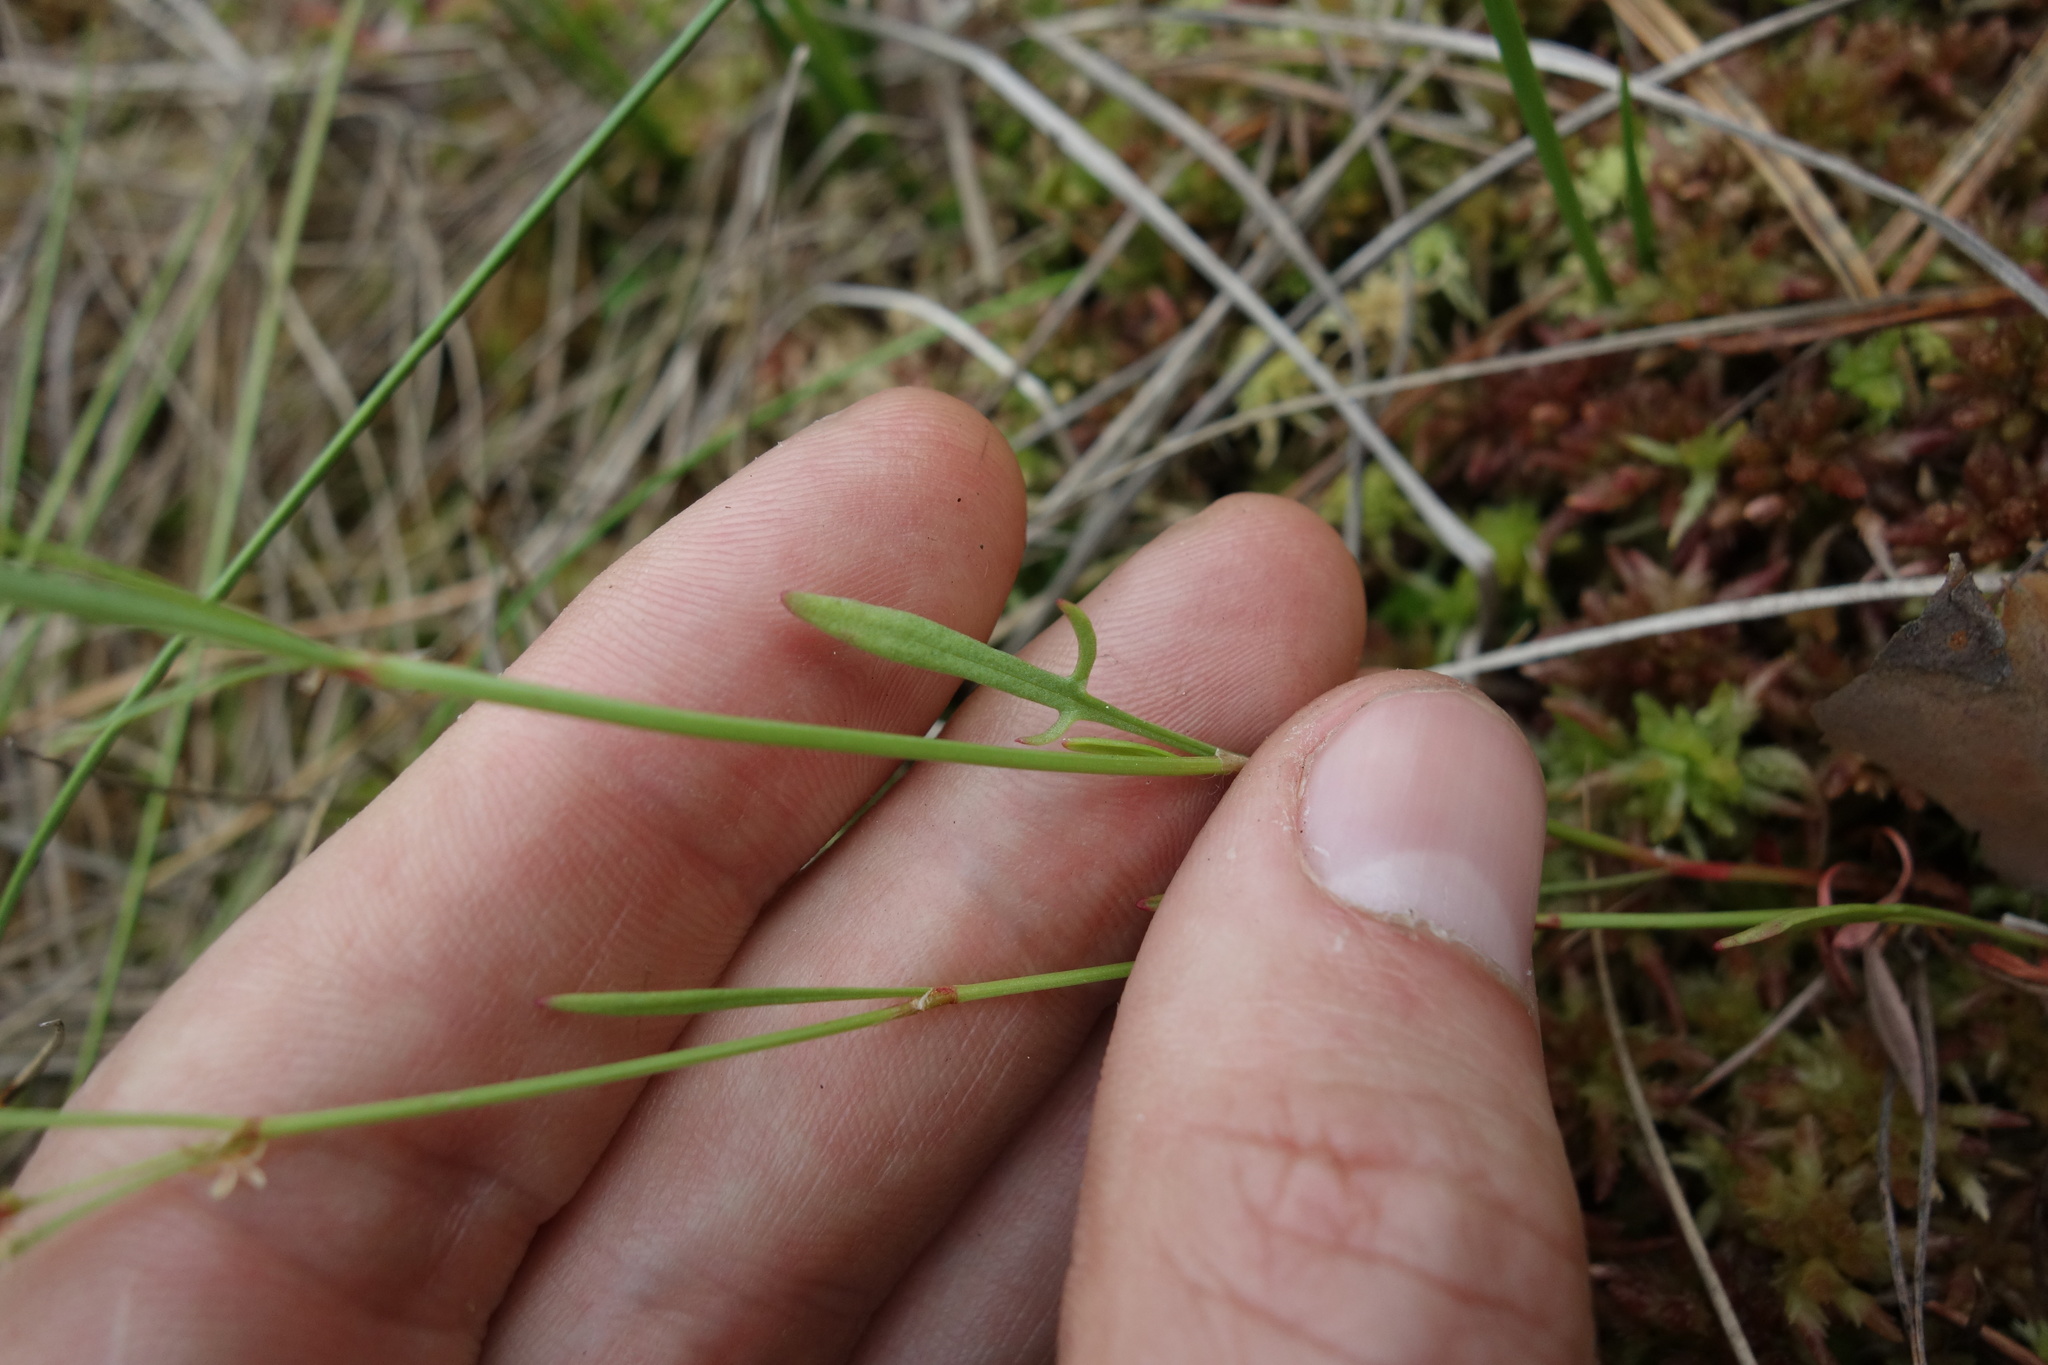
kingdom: Plantae
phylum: Tracheophyta
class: Magnoliopsida
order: Caryophyllales
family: Polygonaceae
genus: Rumex
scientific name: Rumex acetosella
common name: Common sheep sorrel
